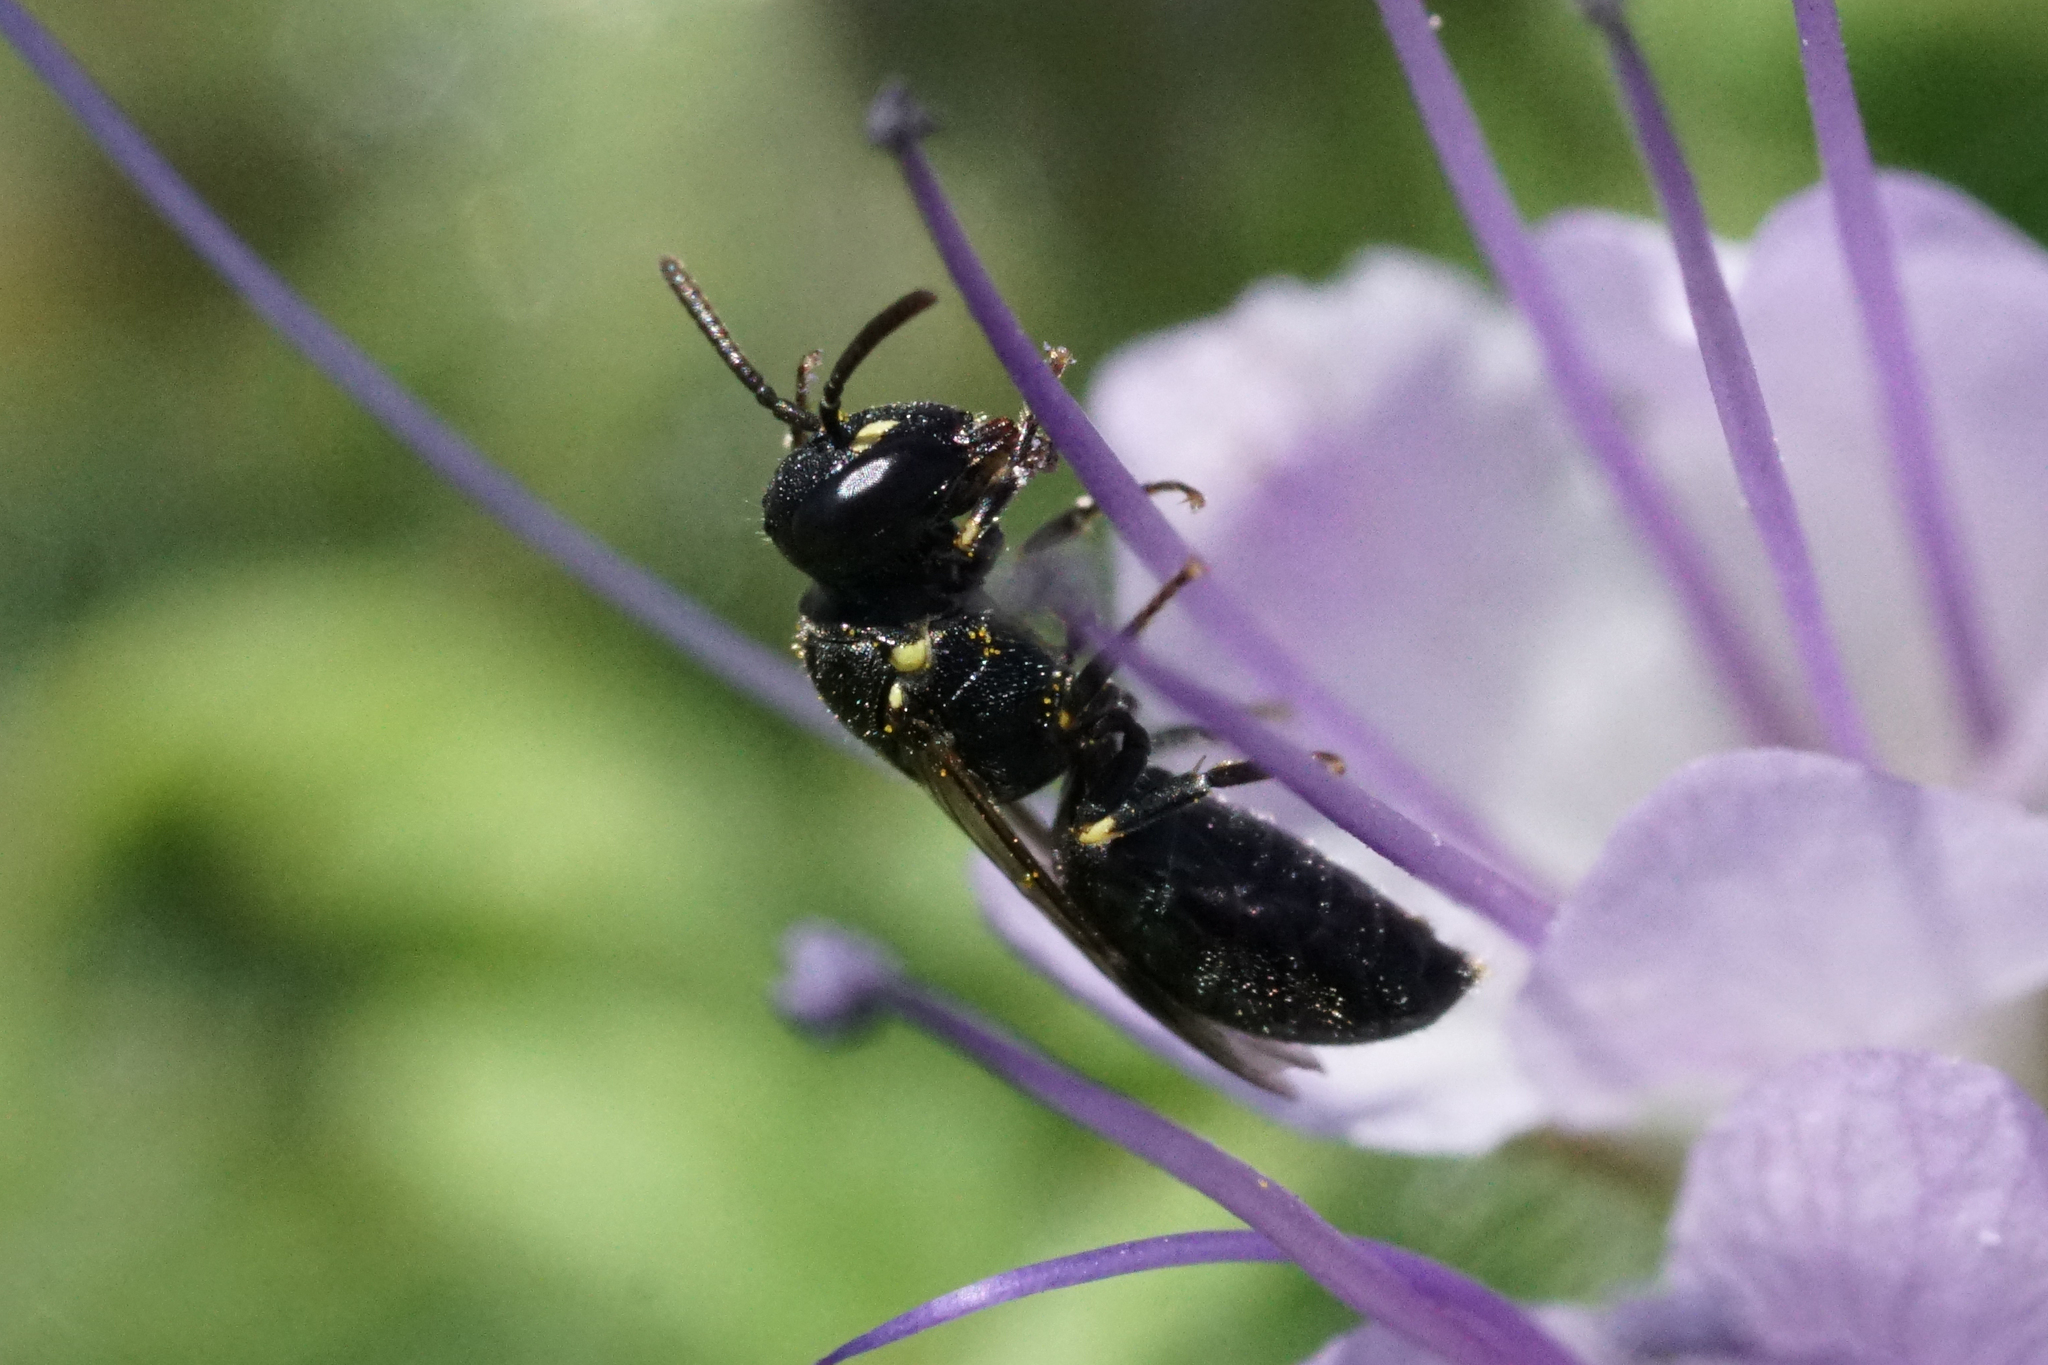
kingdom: Animalia
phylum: Arthropoda
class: Insecta
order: Hymenoptera
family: Colletidae
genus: Hylaeus
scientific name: Hylaeus pictipes
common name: Little yellow-face bee
